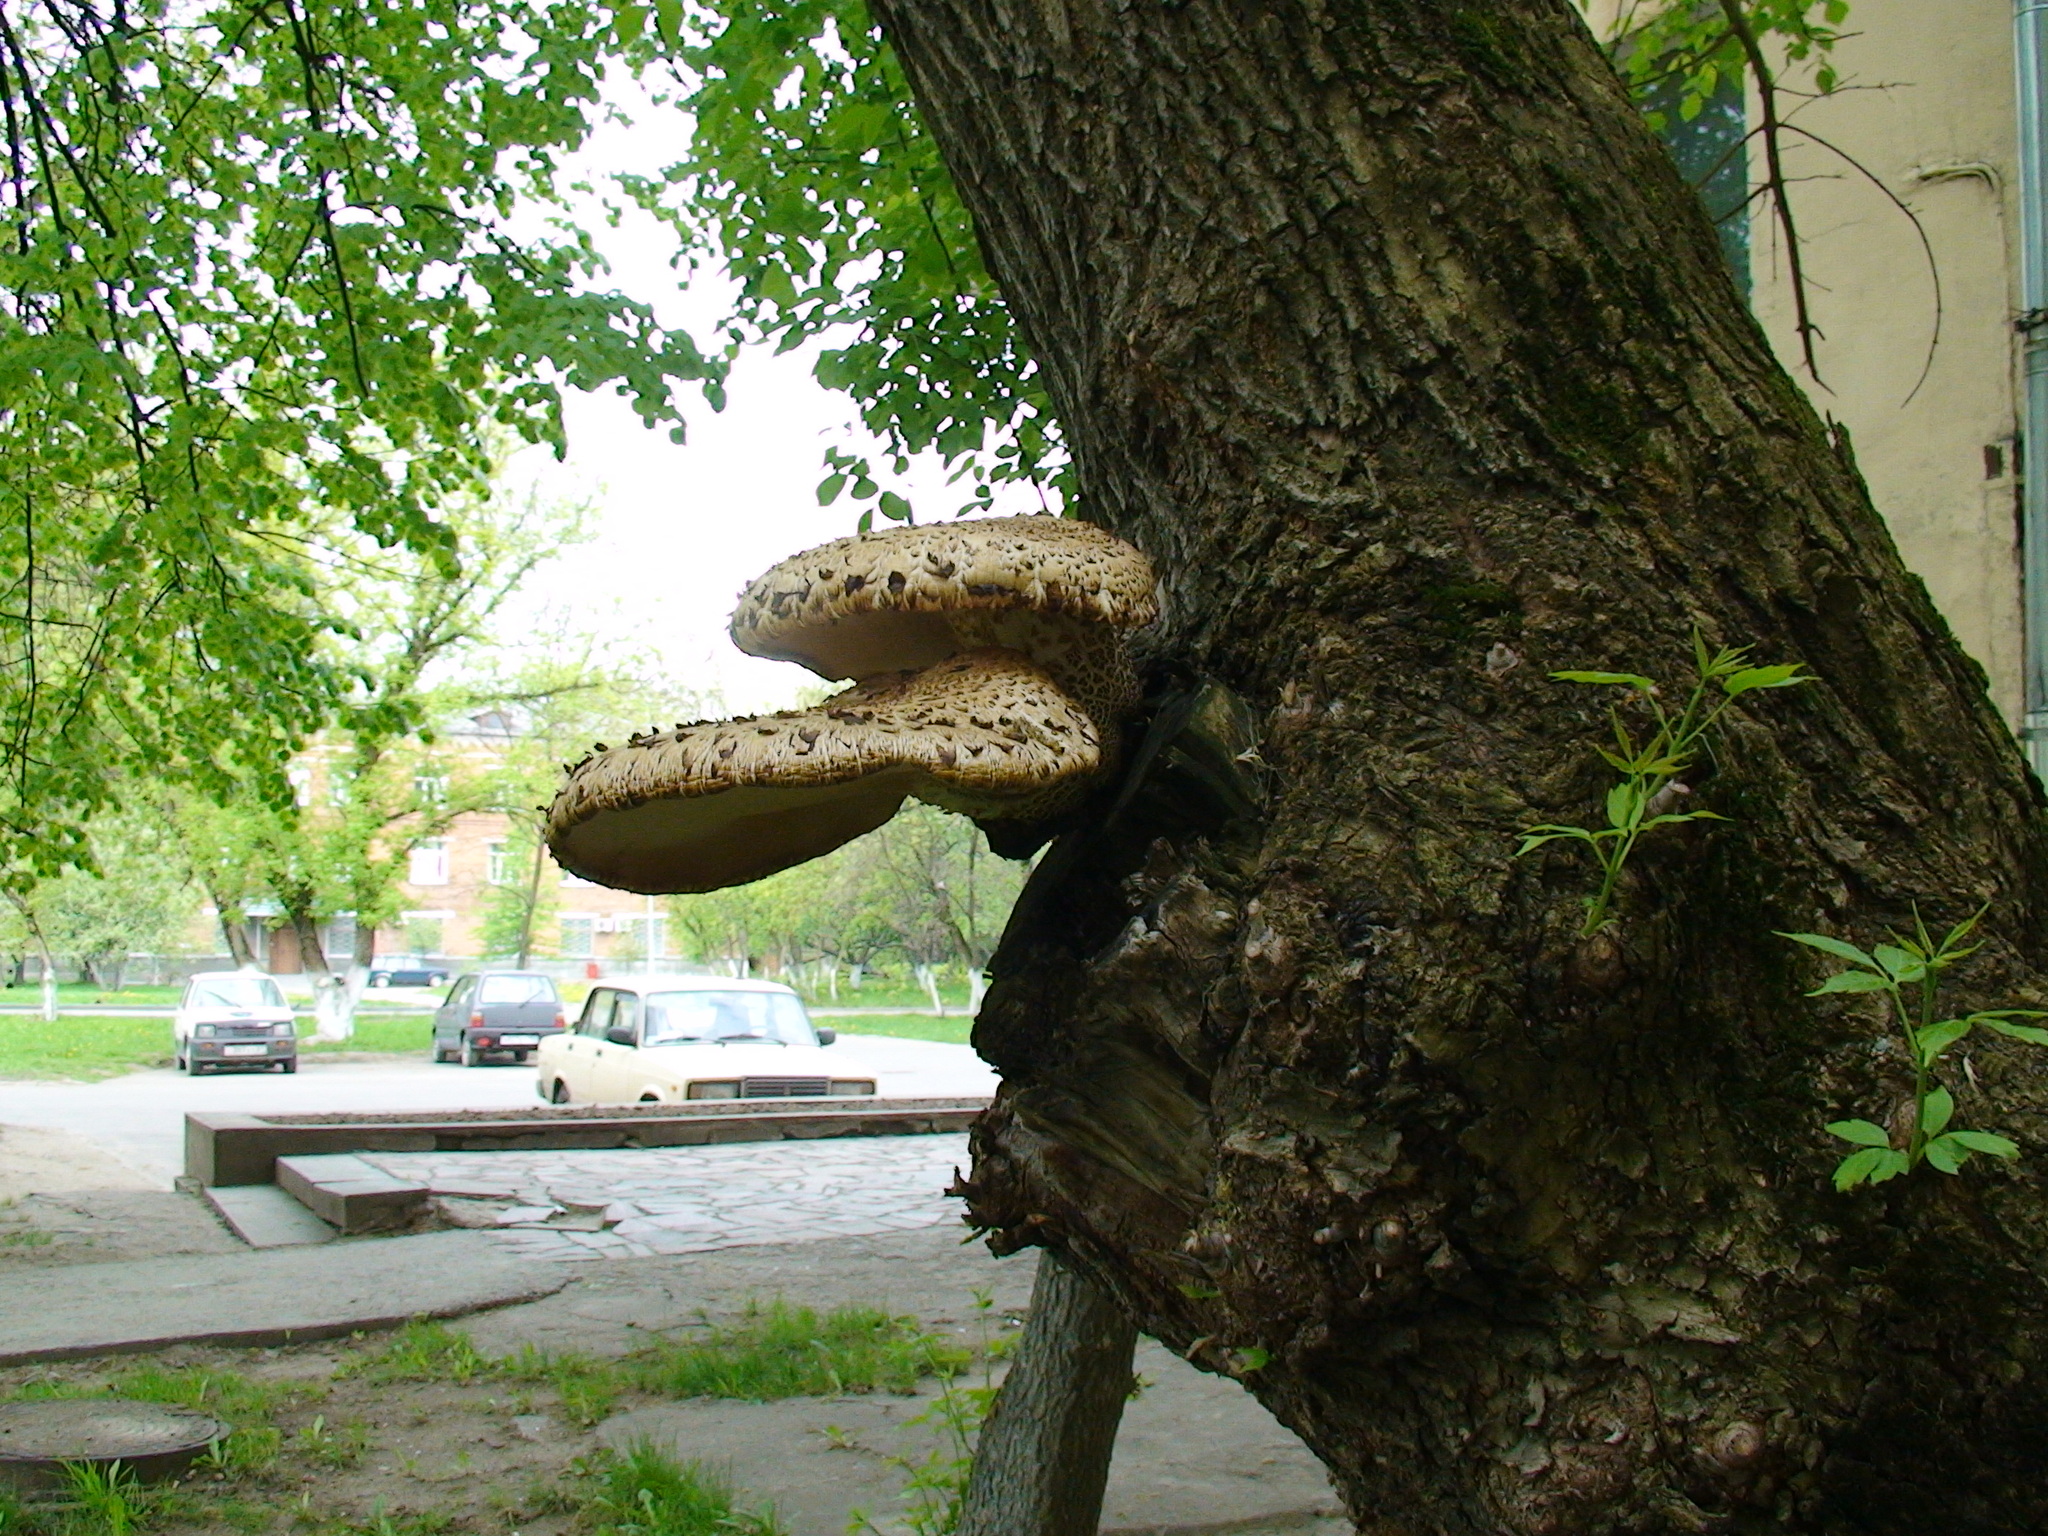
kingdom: Fungi
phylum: Basidiomycota
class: Agaricomycetes
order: Polyporales
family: Polyporaceae
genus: Cerioporus
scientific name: Cerioporus squamosus
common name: Dryad's saddle
